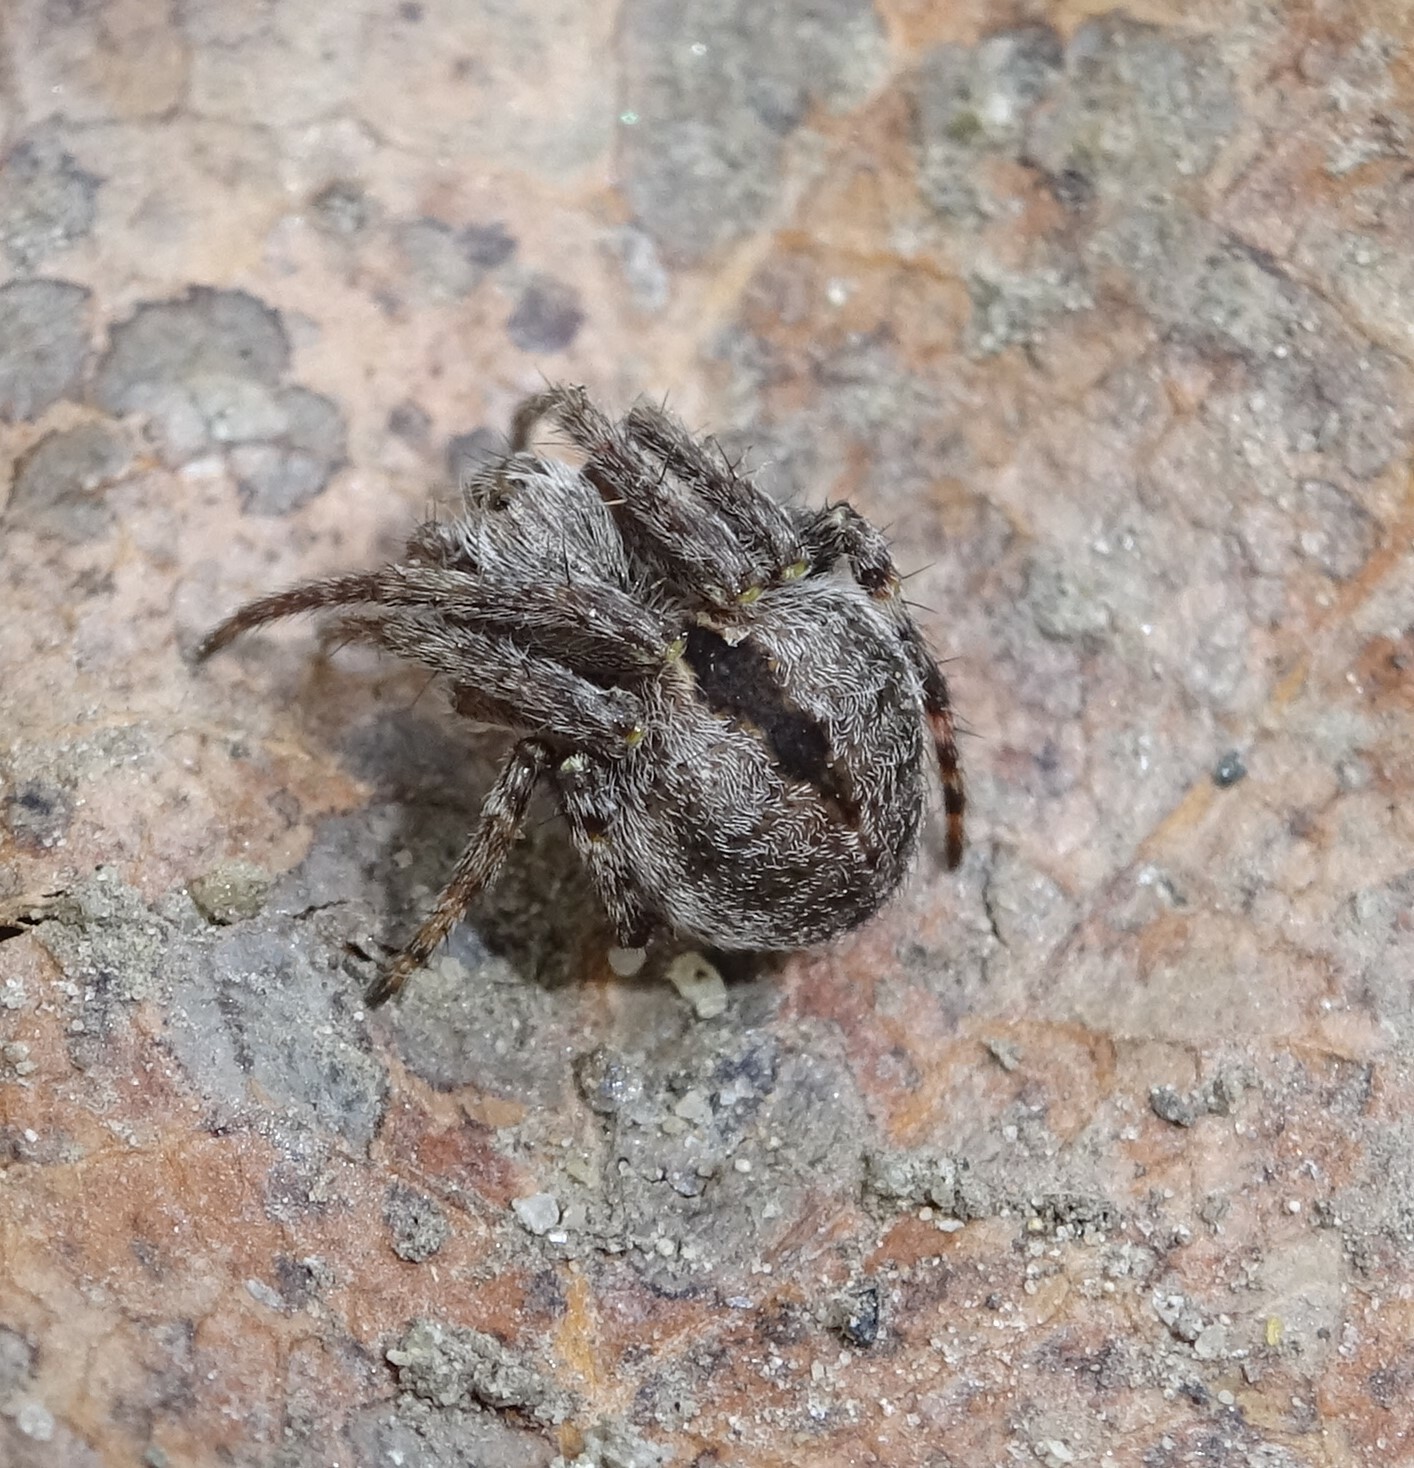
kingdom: Animalia
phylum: Arthropoda
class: Arachnida
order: Araneae
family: Araneidae
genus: Agalenatea
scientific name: Agalenatea redii
